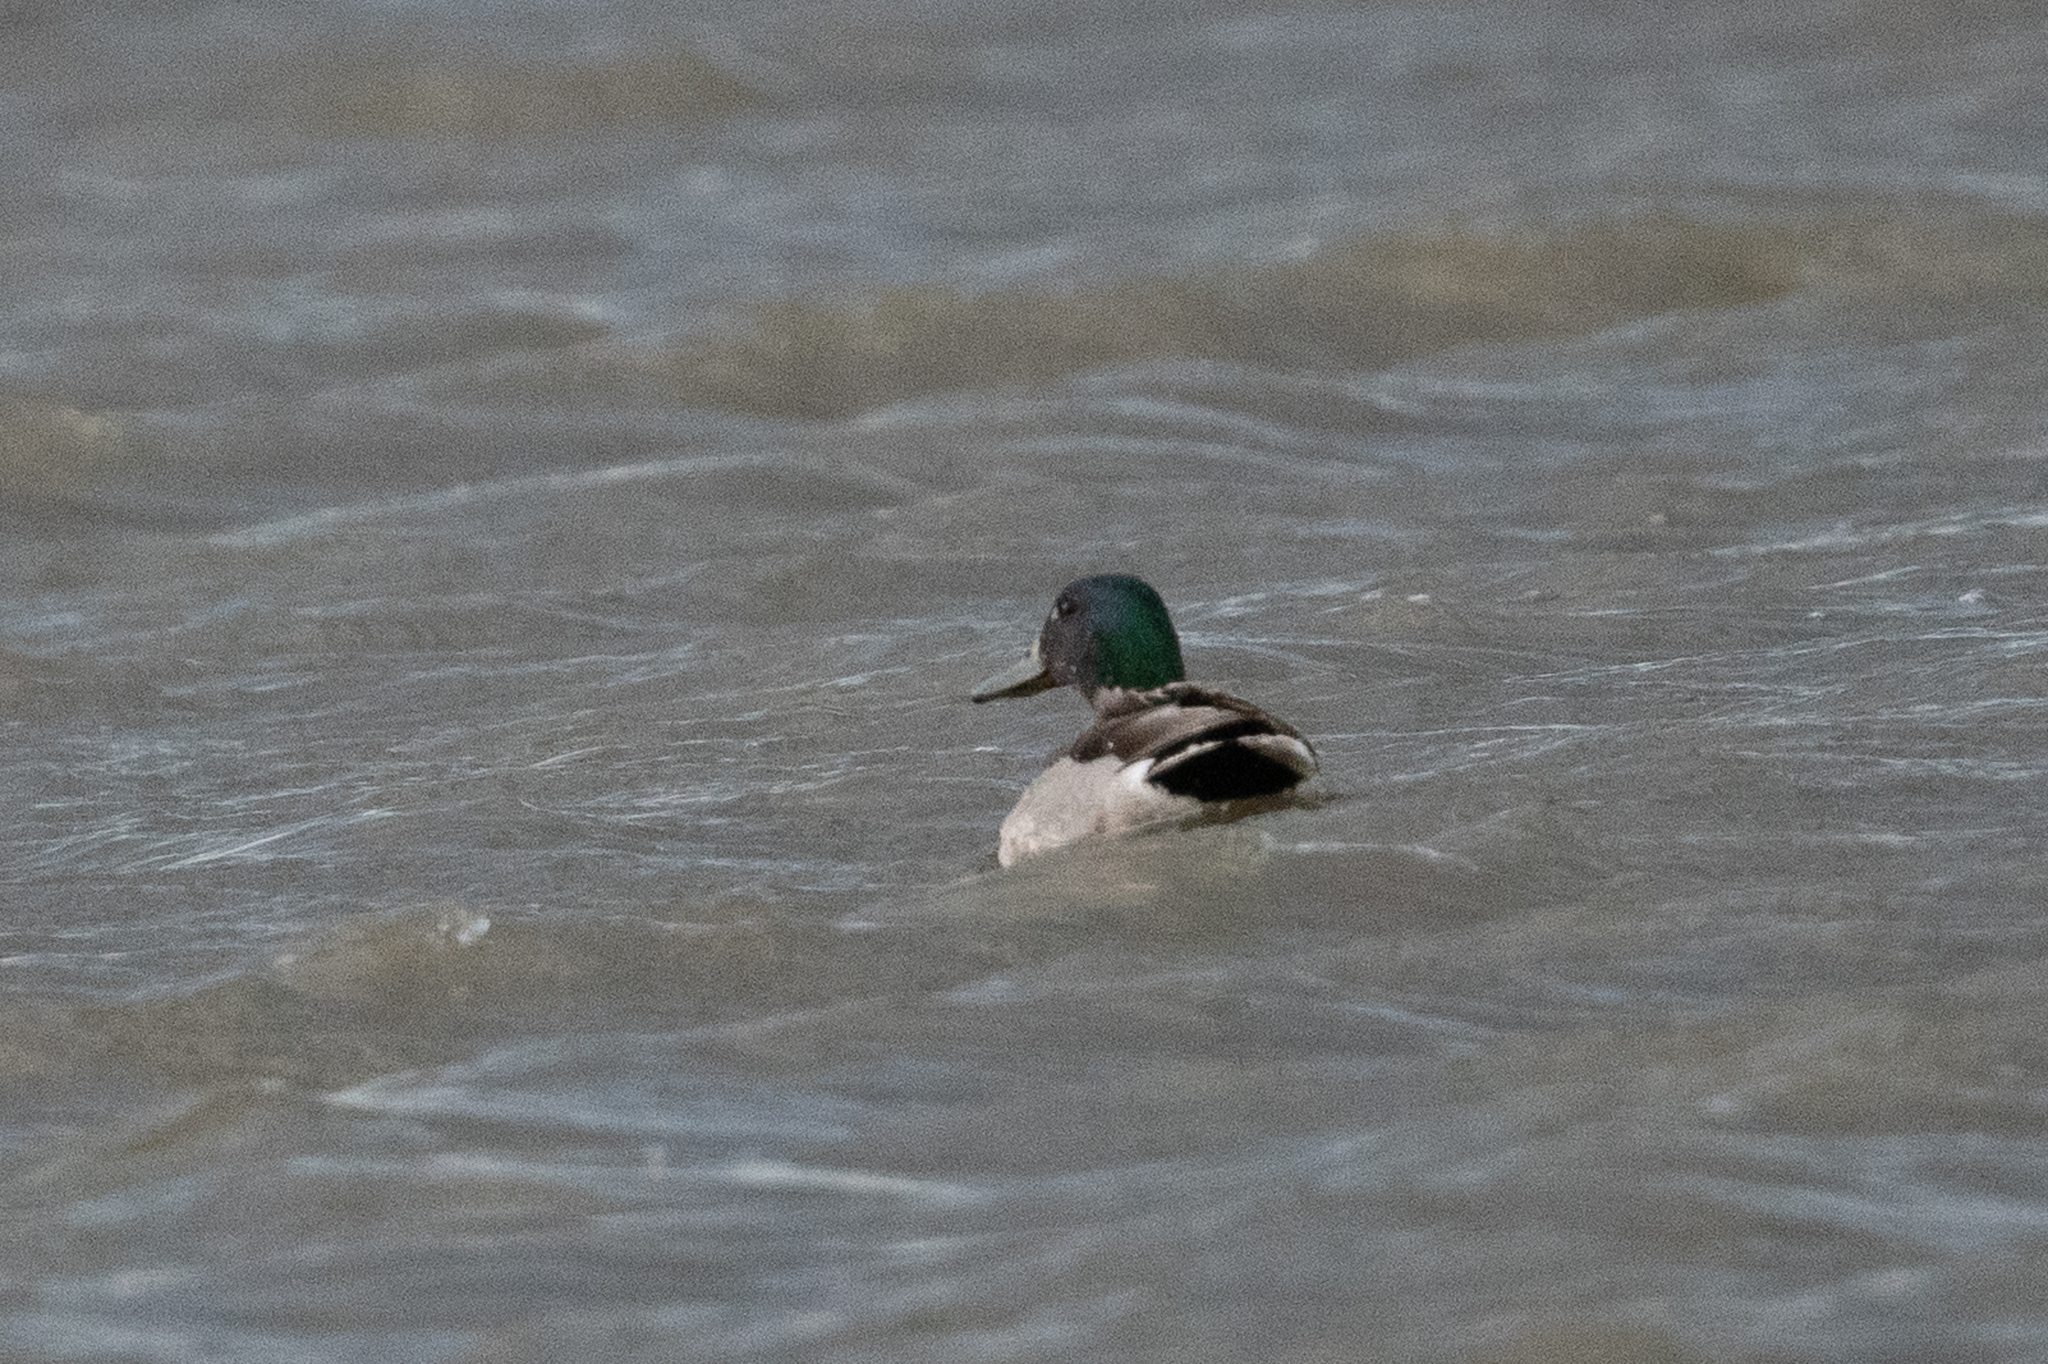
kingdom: Animalia
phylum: Chordata
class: Aves
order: Anseriformes
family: Anatidae
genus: Anas
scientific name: Anas platyrhynchos
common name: Mallard
